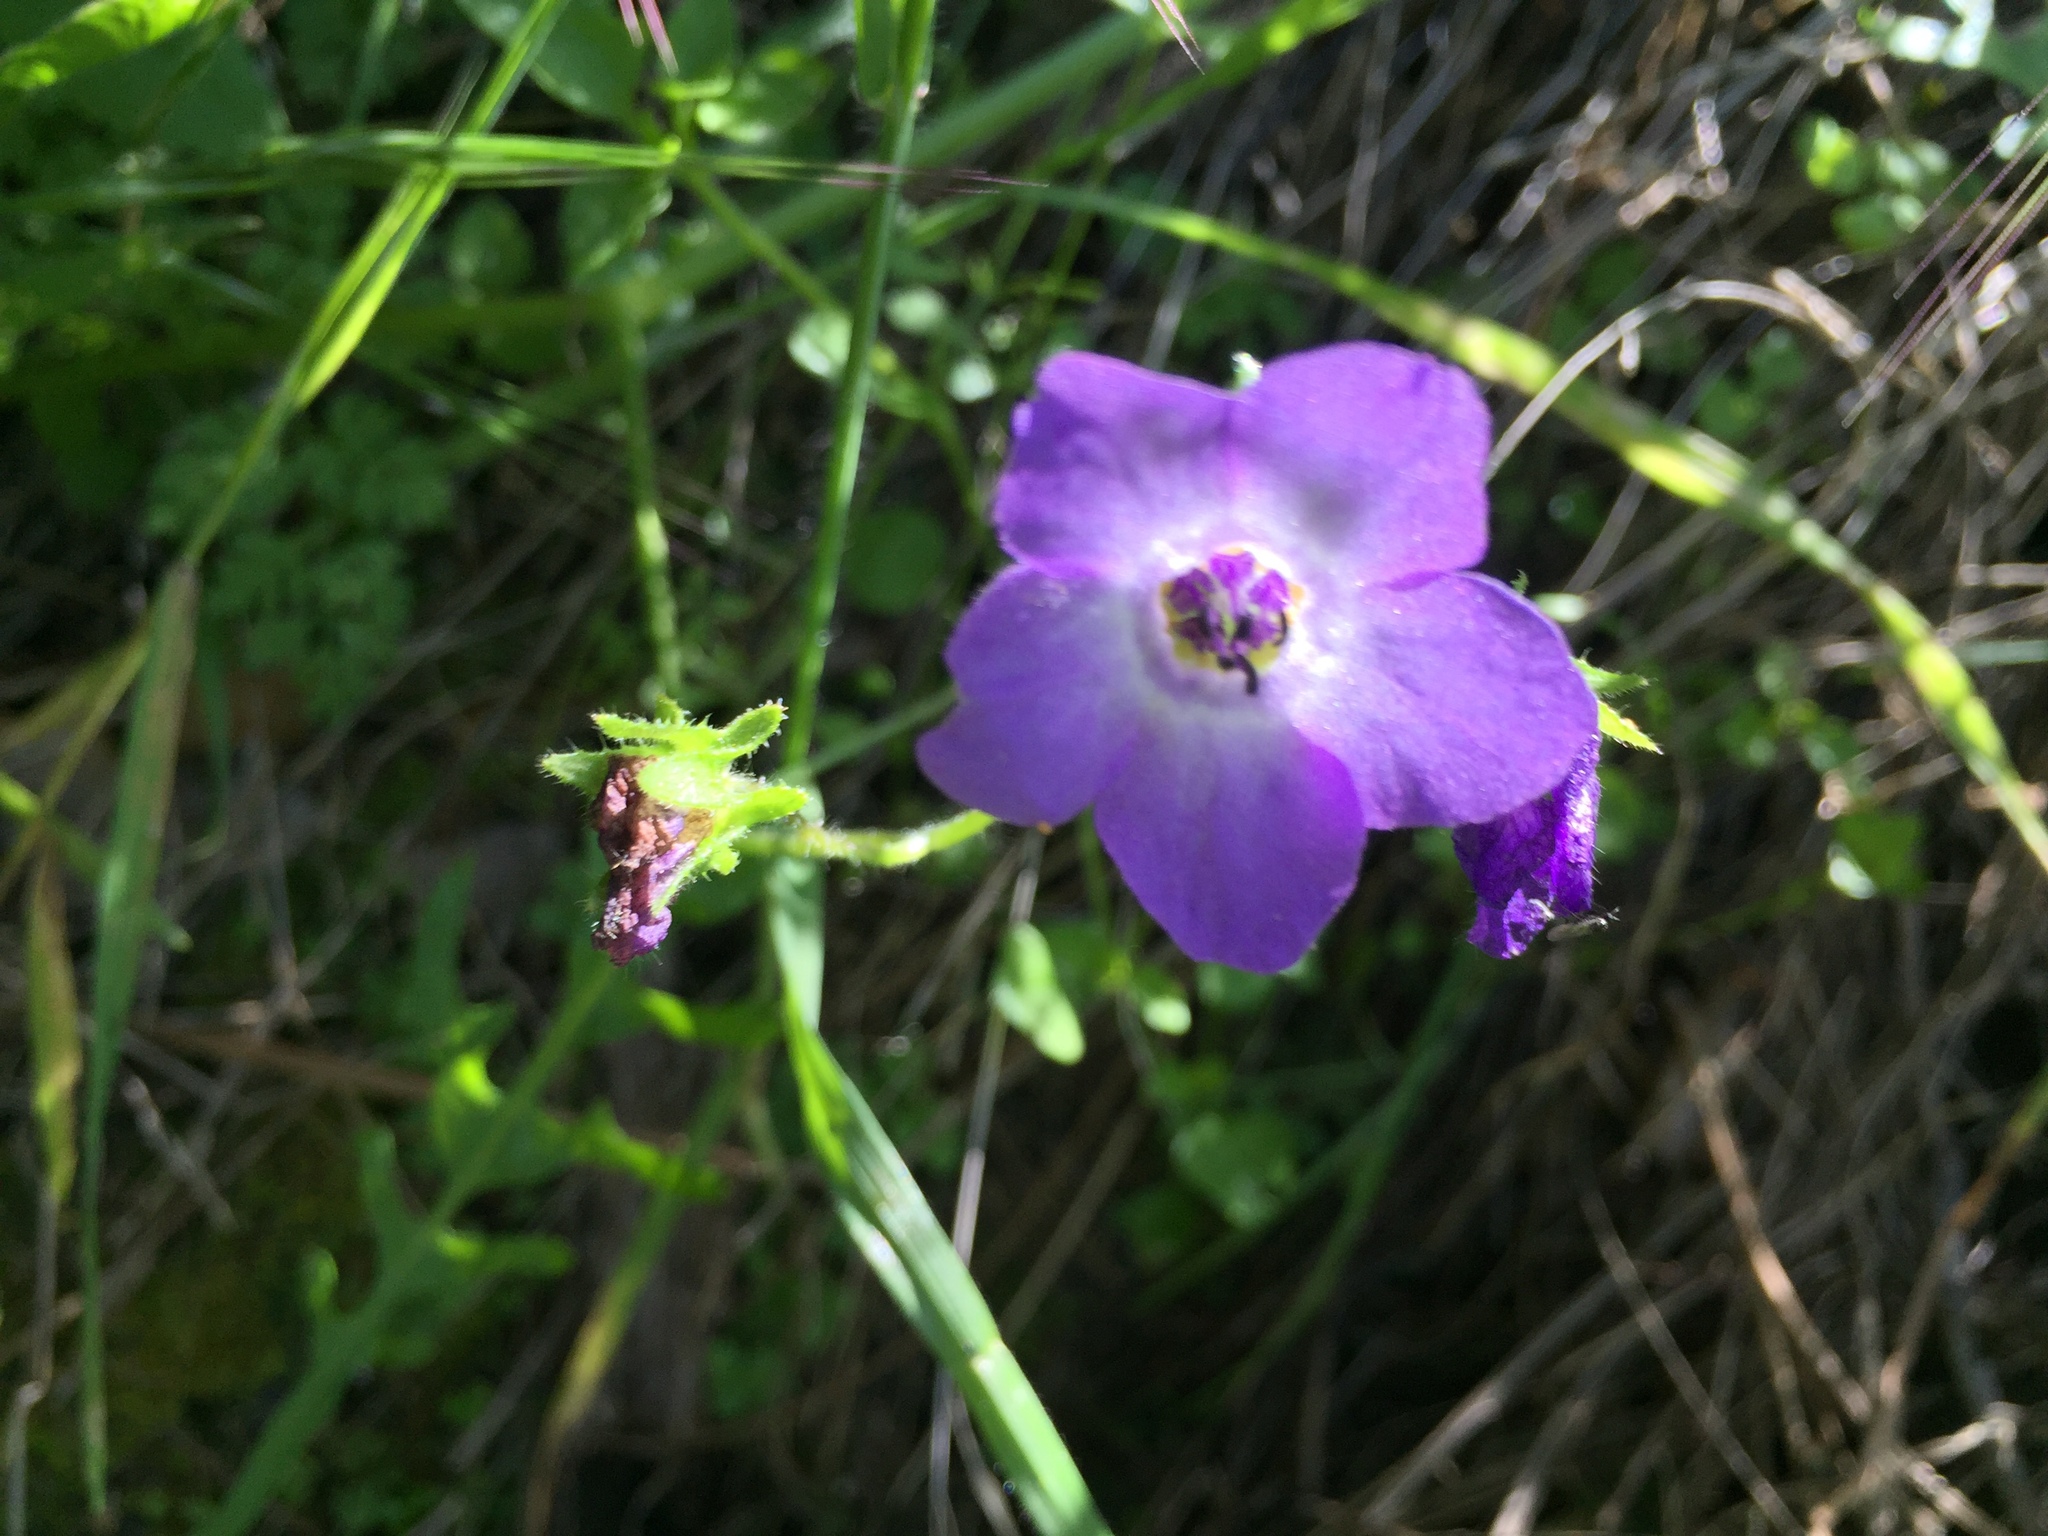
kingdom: Plantae
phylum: Tracheophyta
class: Magnoliopsida
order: Boraginales
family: Hydrophyllaceae
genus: Pholistoma
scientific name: Pholistoma auritum
